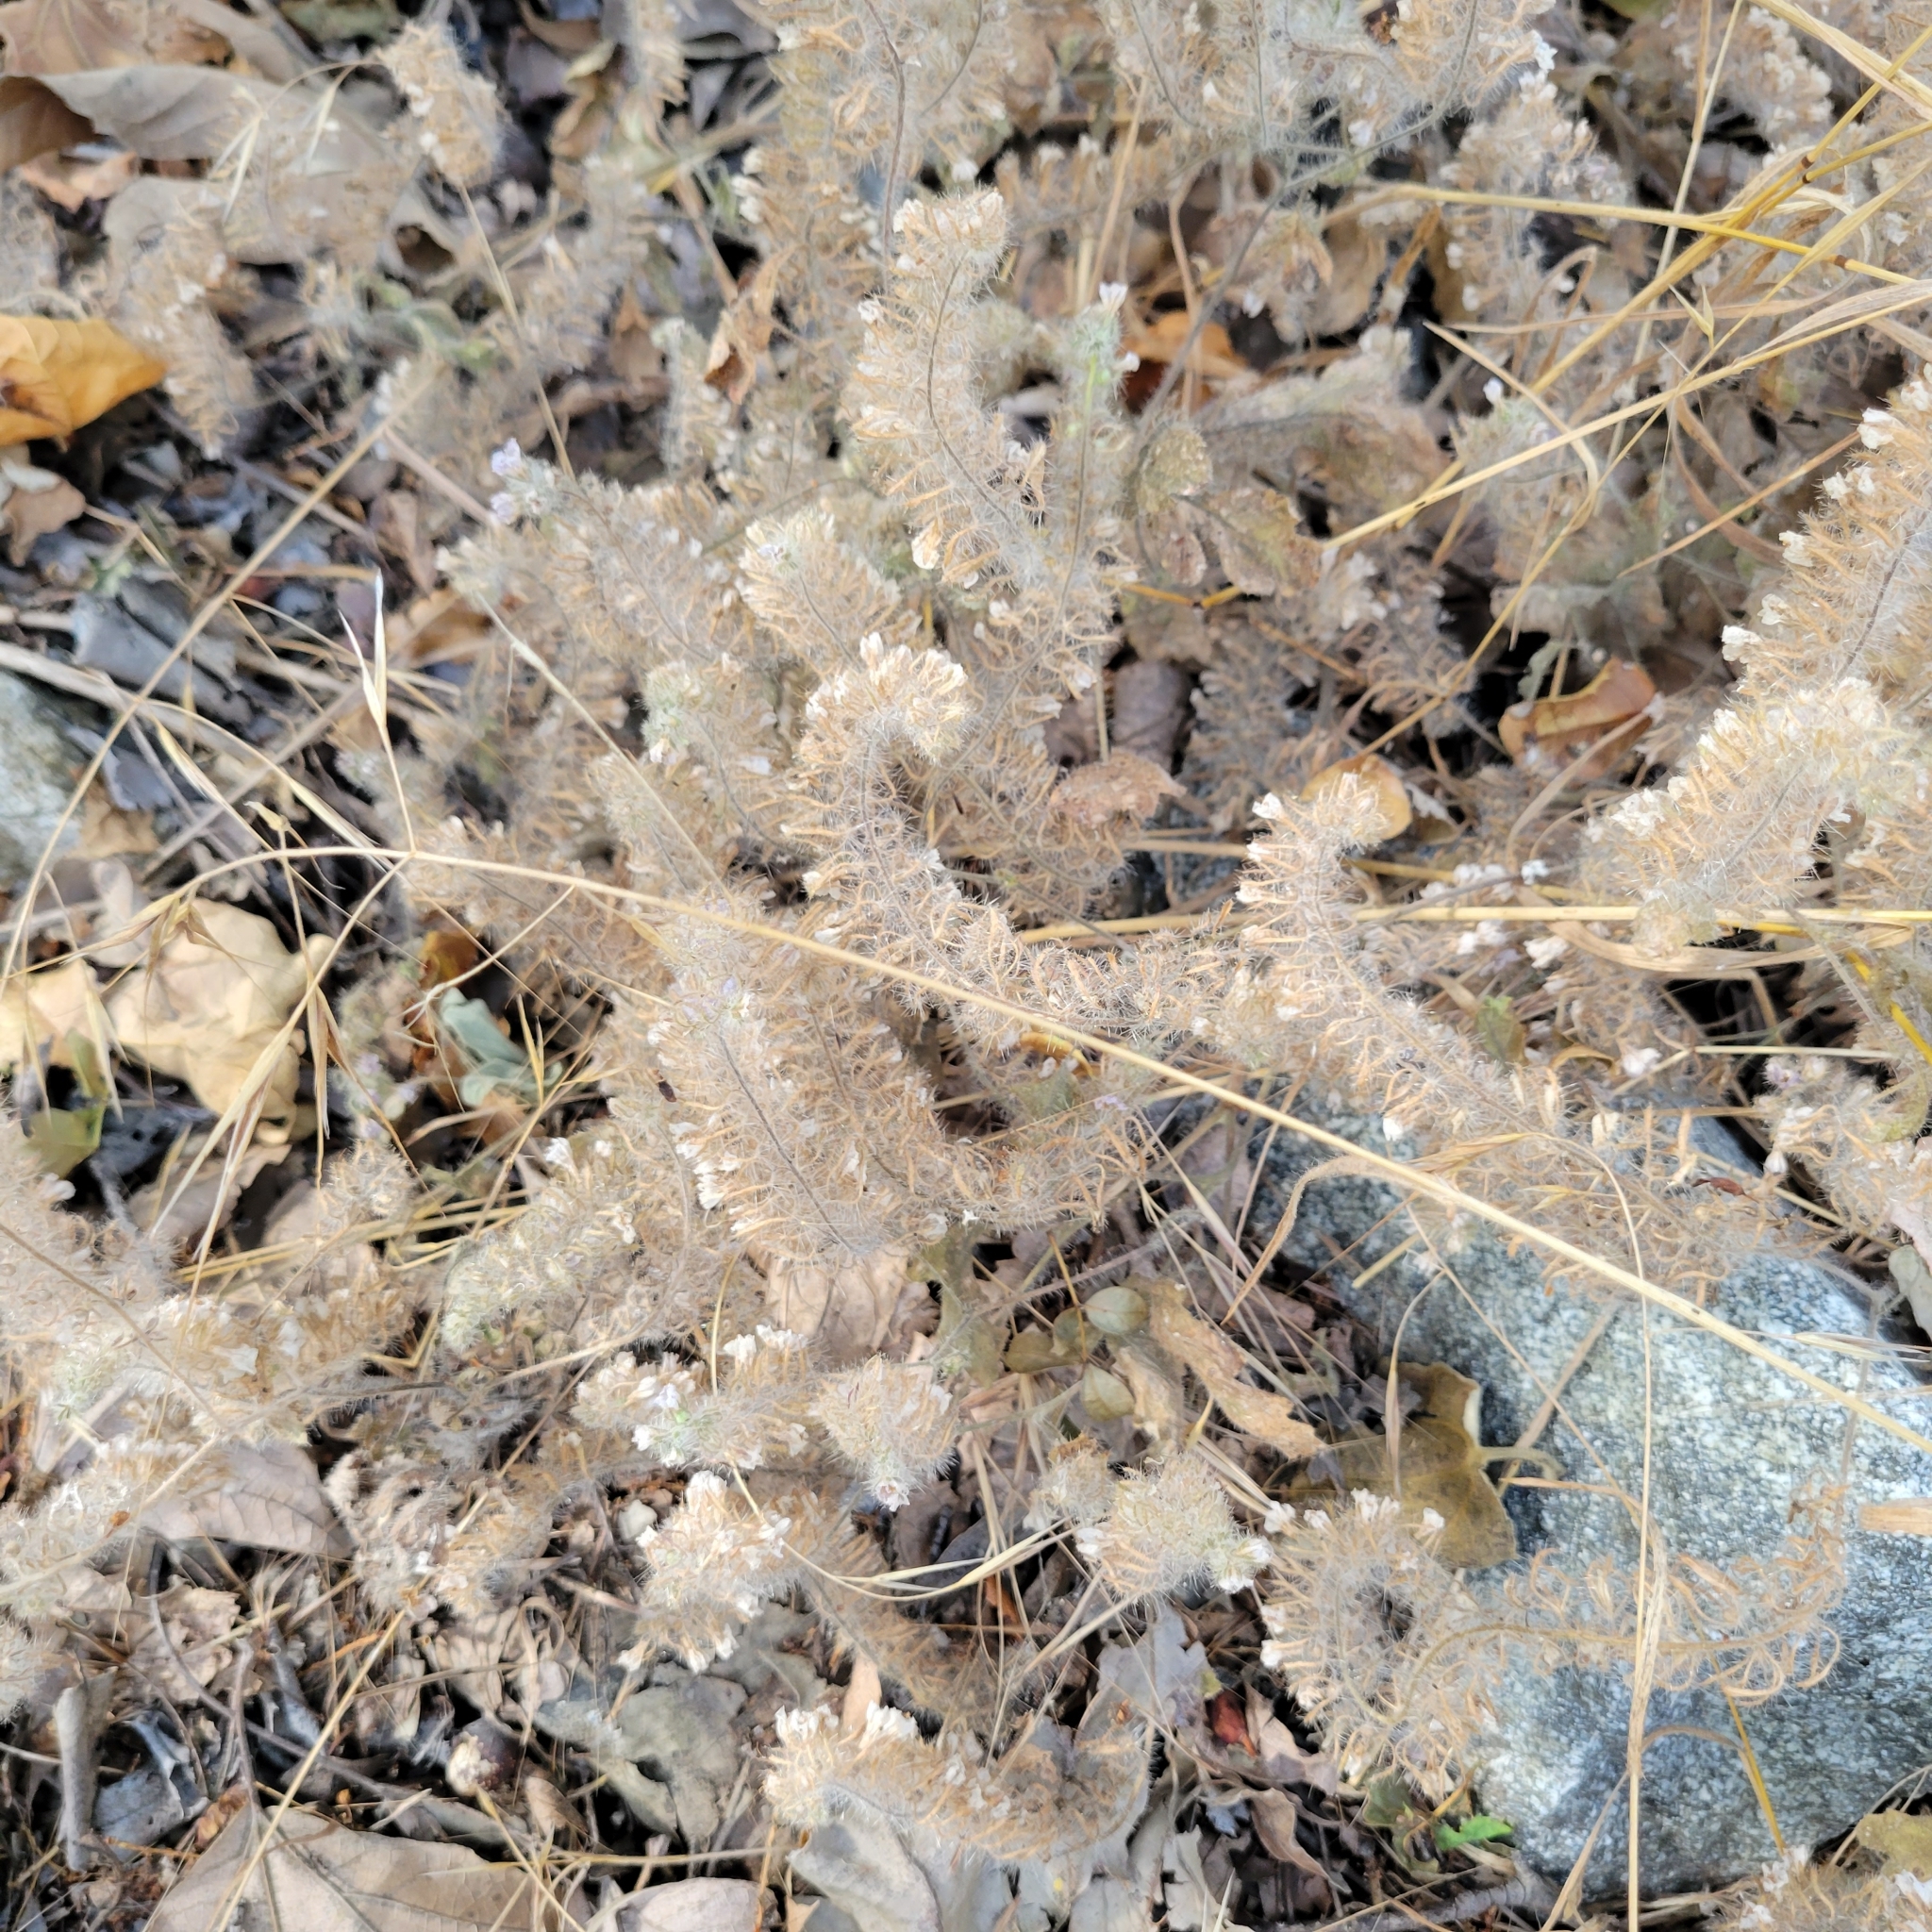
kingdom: Plantae
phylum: Tracheophyta
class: Magnoliopsida
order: Boraginales
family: Hydrophyllaceae
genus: Phacelia
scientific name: Phacelia cicutaria
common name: Caterpillar phacelia
